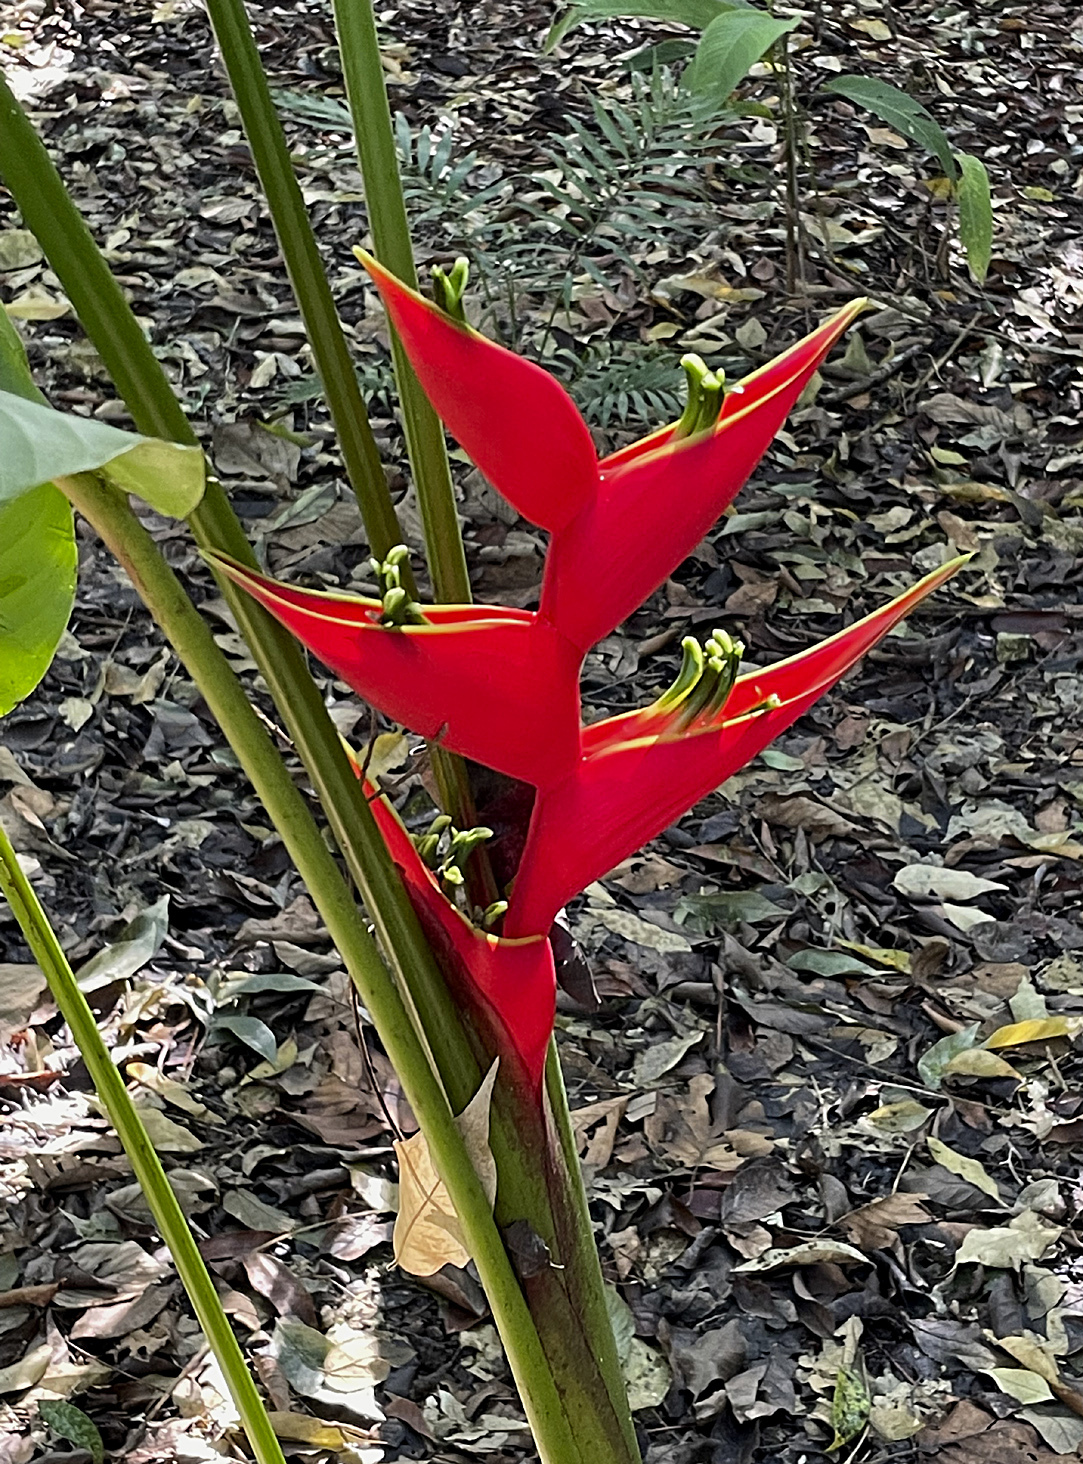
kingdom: Plantae
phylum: Tracheophyta
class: Liliopsida
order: Zingiberales
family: Heliconiaceae
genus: Heliconia
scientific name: Heliconia stricta
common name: Small lobster claw
